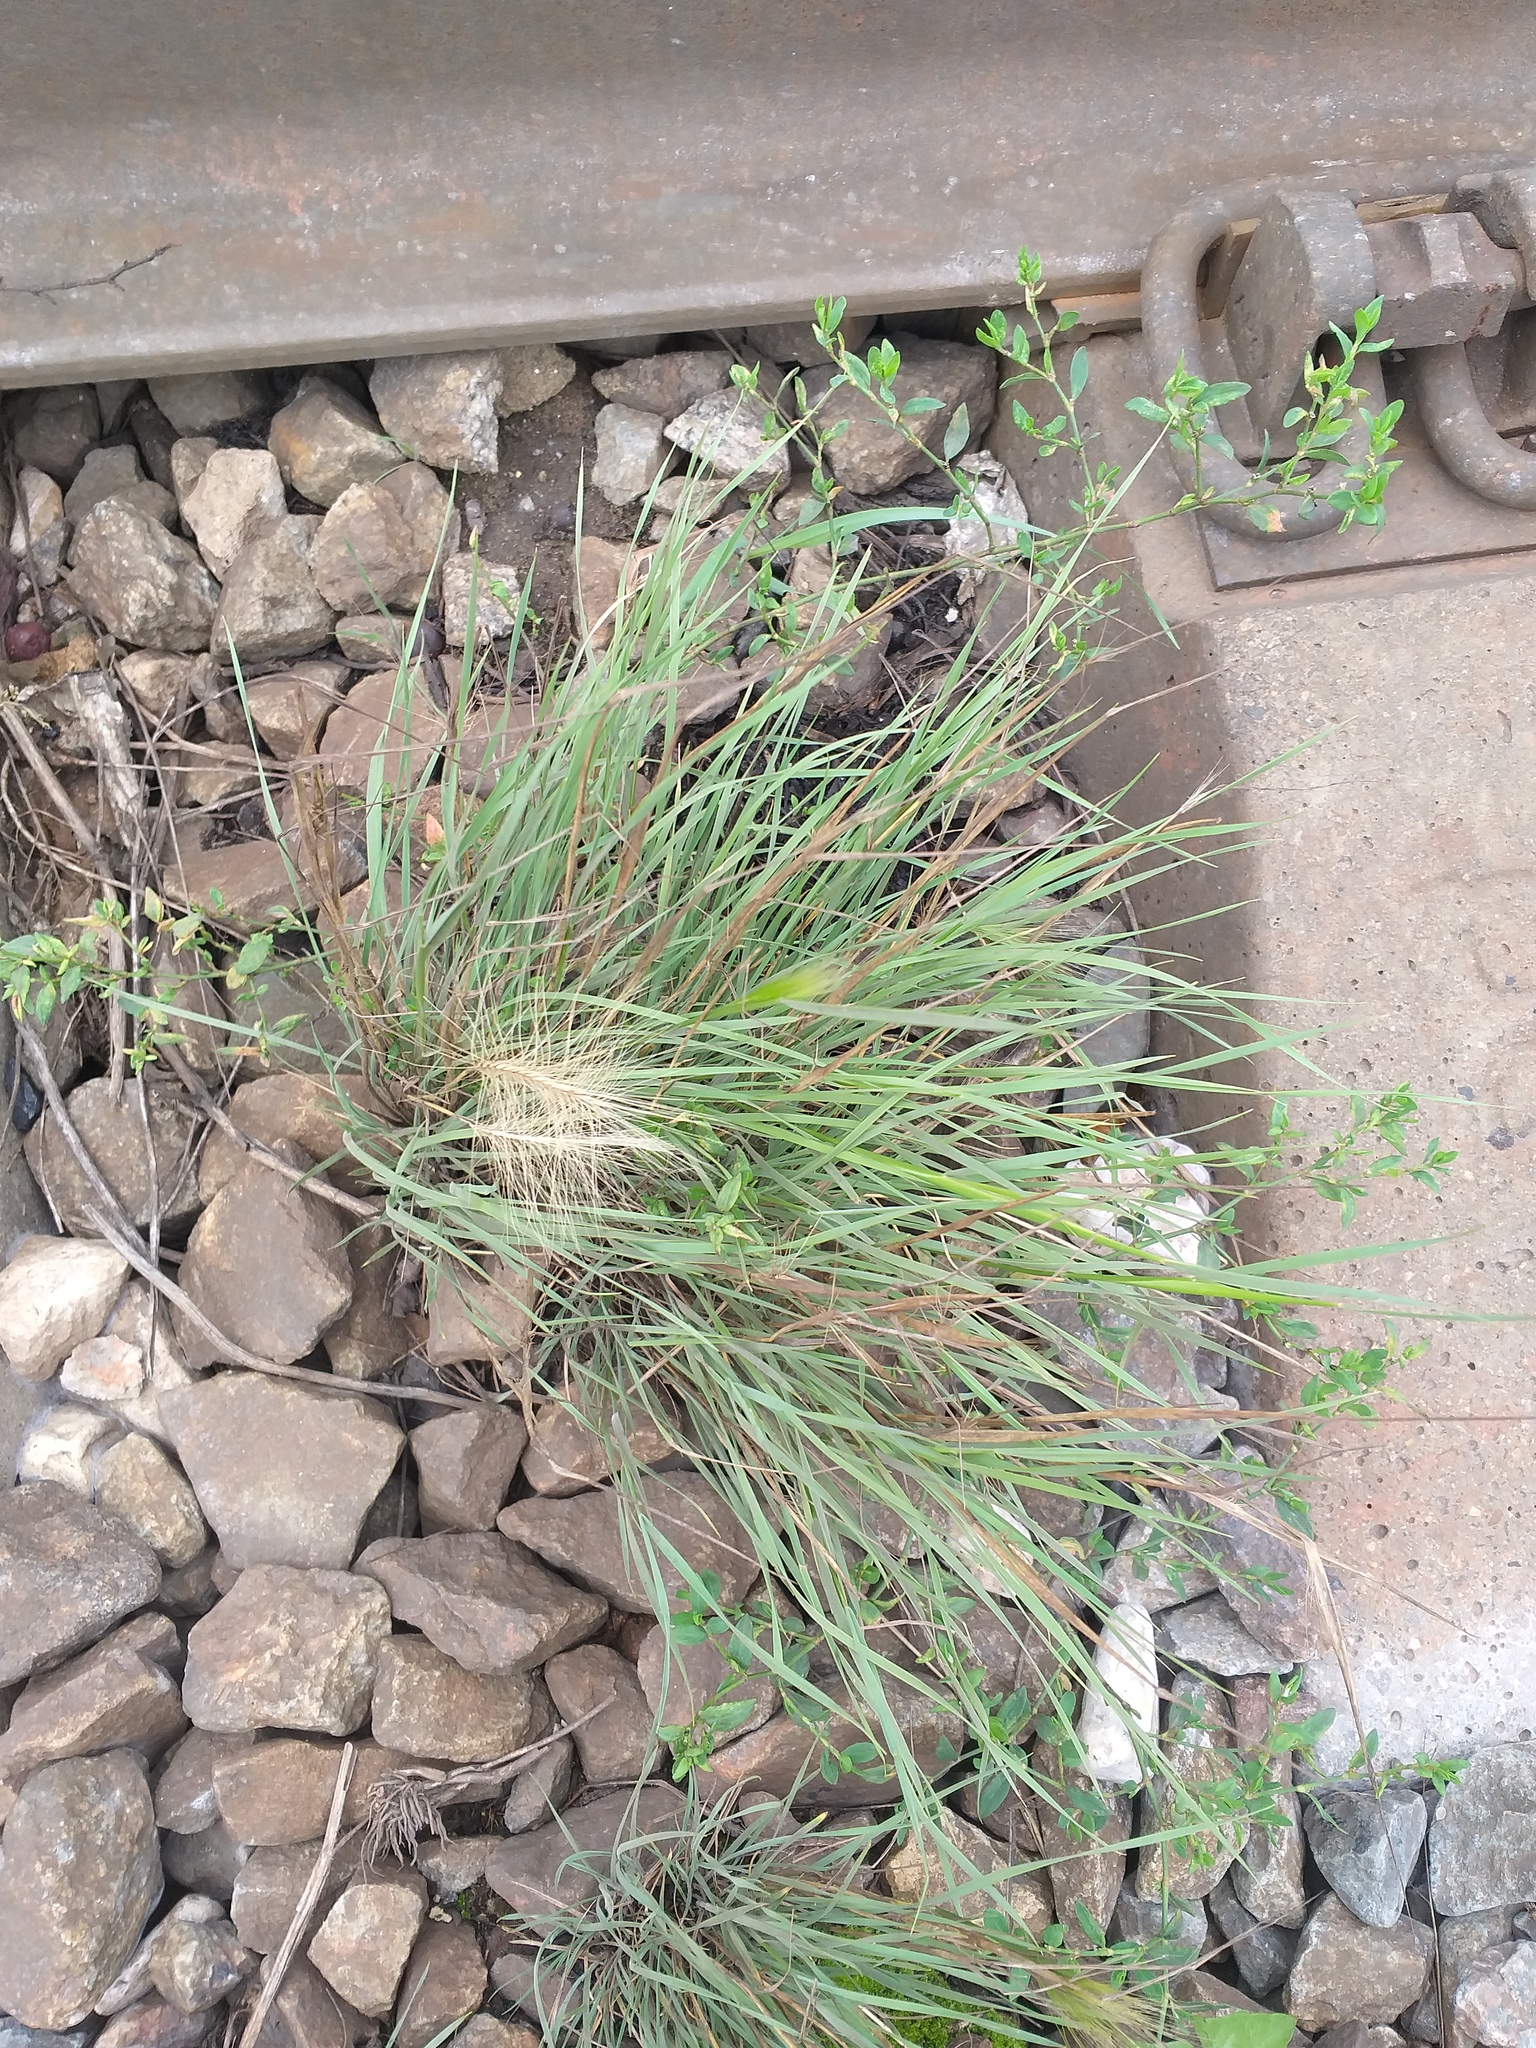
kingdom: Plantae
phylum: Tracheophyta
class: Liliopsida
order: Poales
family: Poaceae
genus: Hordeum
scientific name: Hordeum jubatum
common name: Foxtail barley
